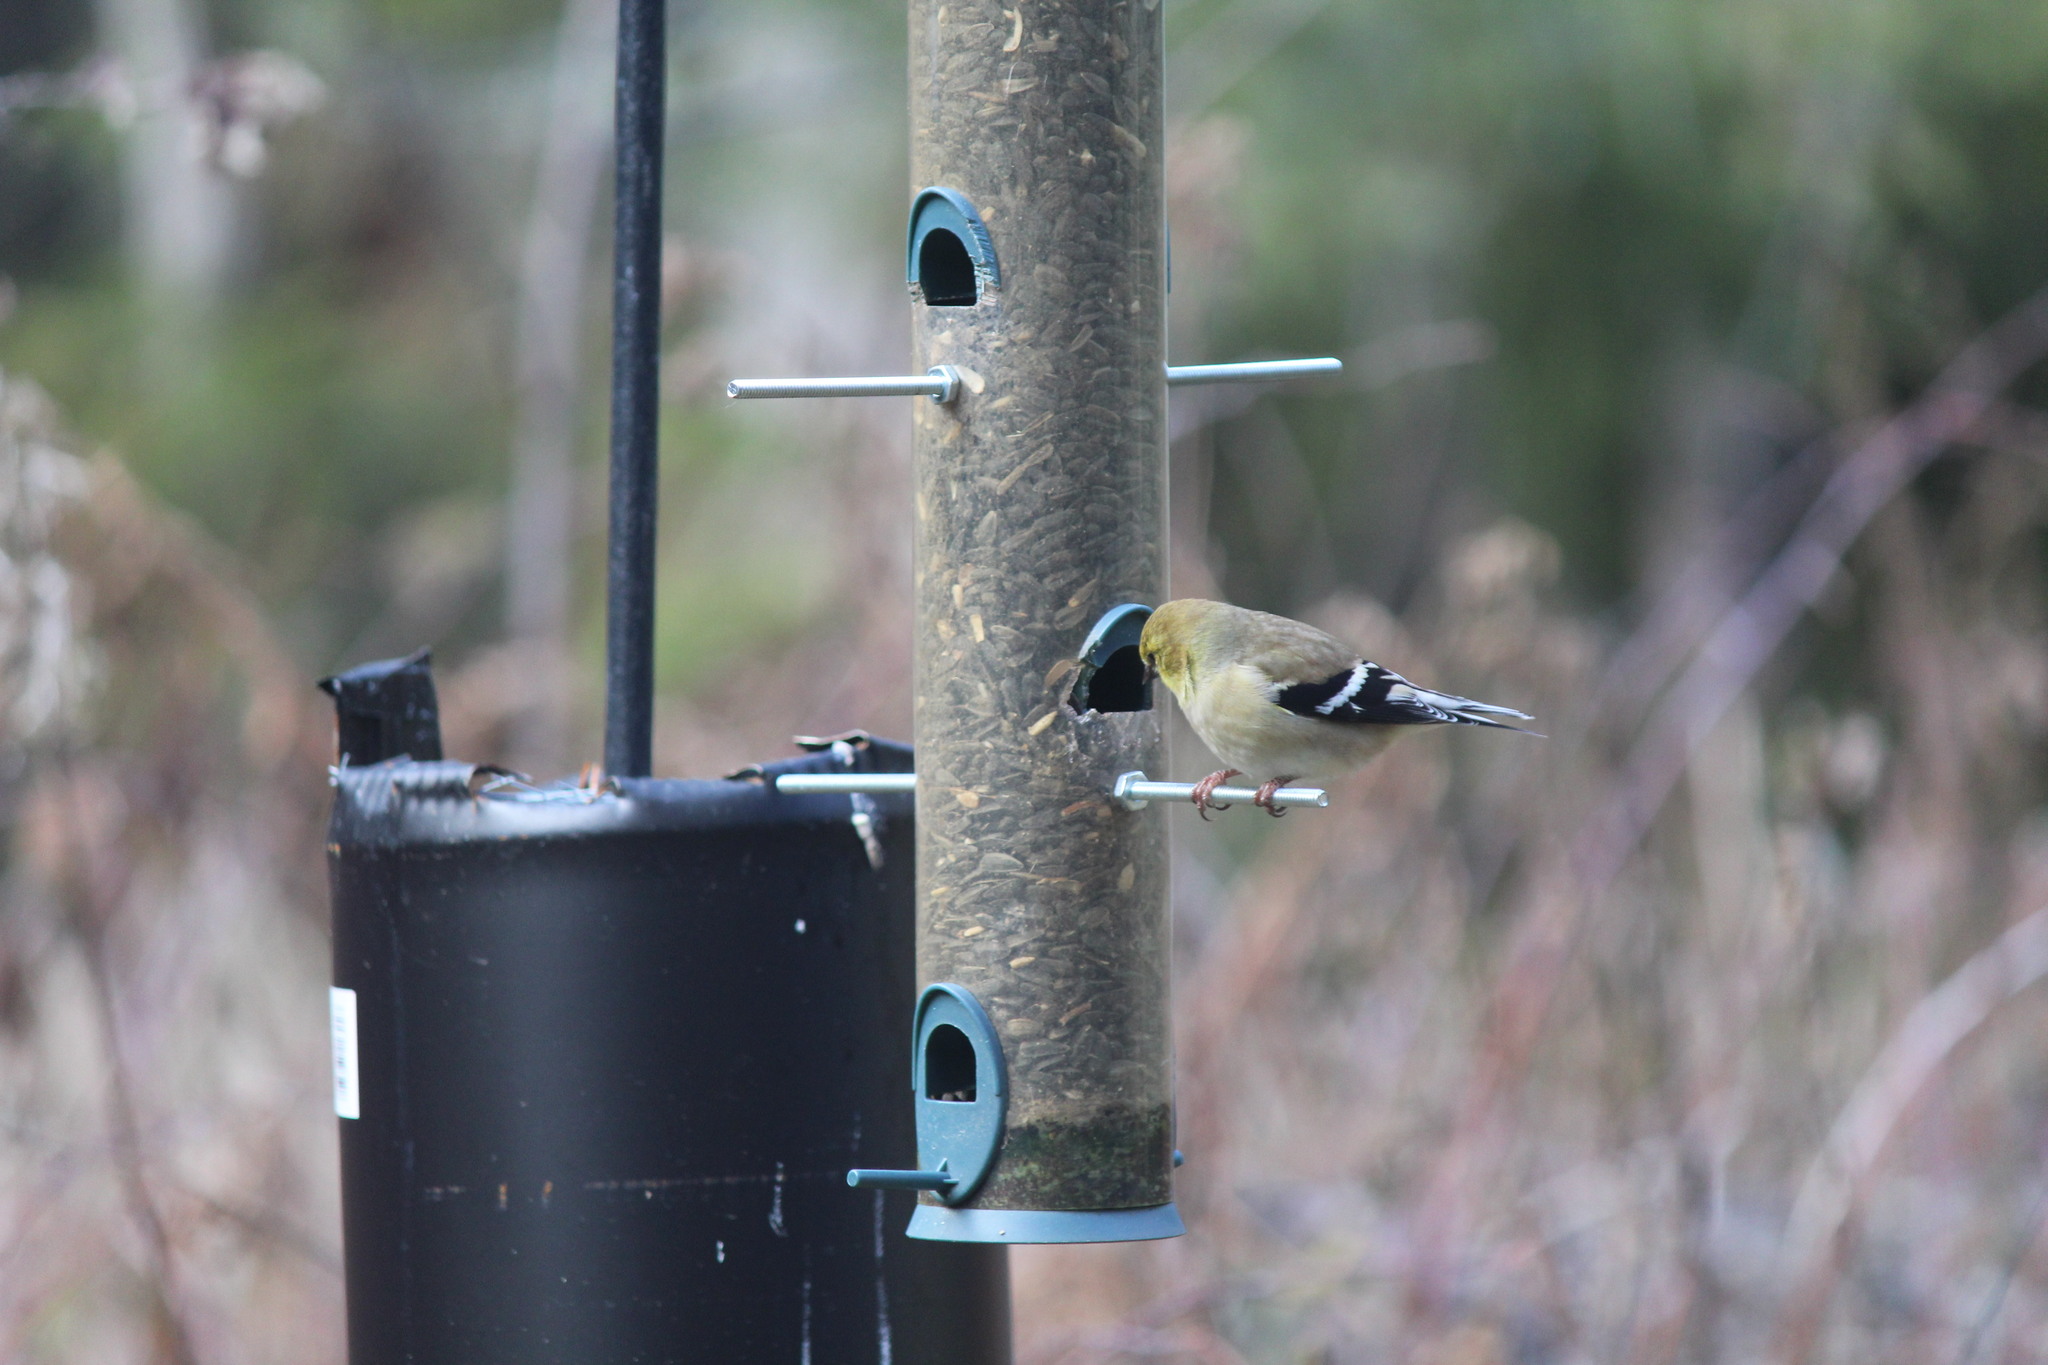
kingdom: Animalia
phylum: Chordata
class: Aves
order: Passeriformes
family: Fringillidae
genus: Spinus
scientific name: Spinus tristis
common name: American goldfinch
